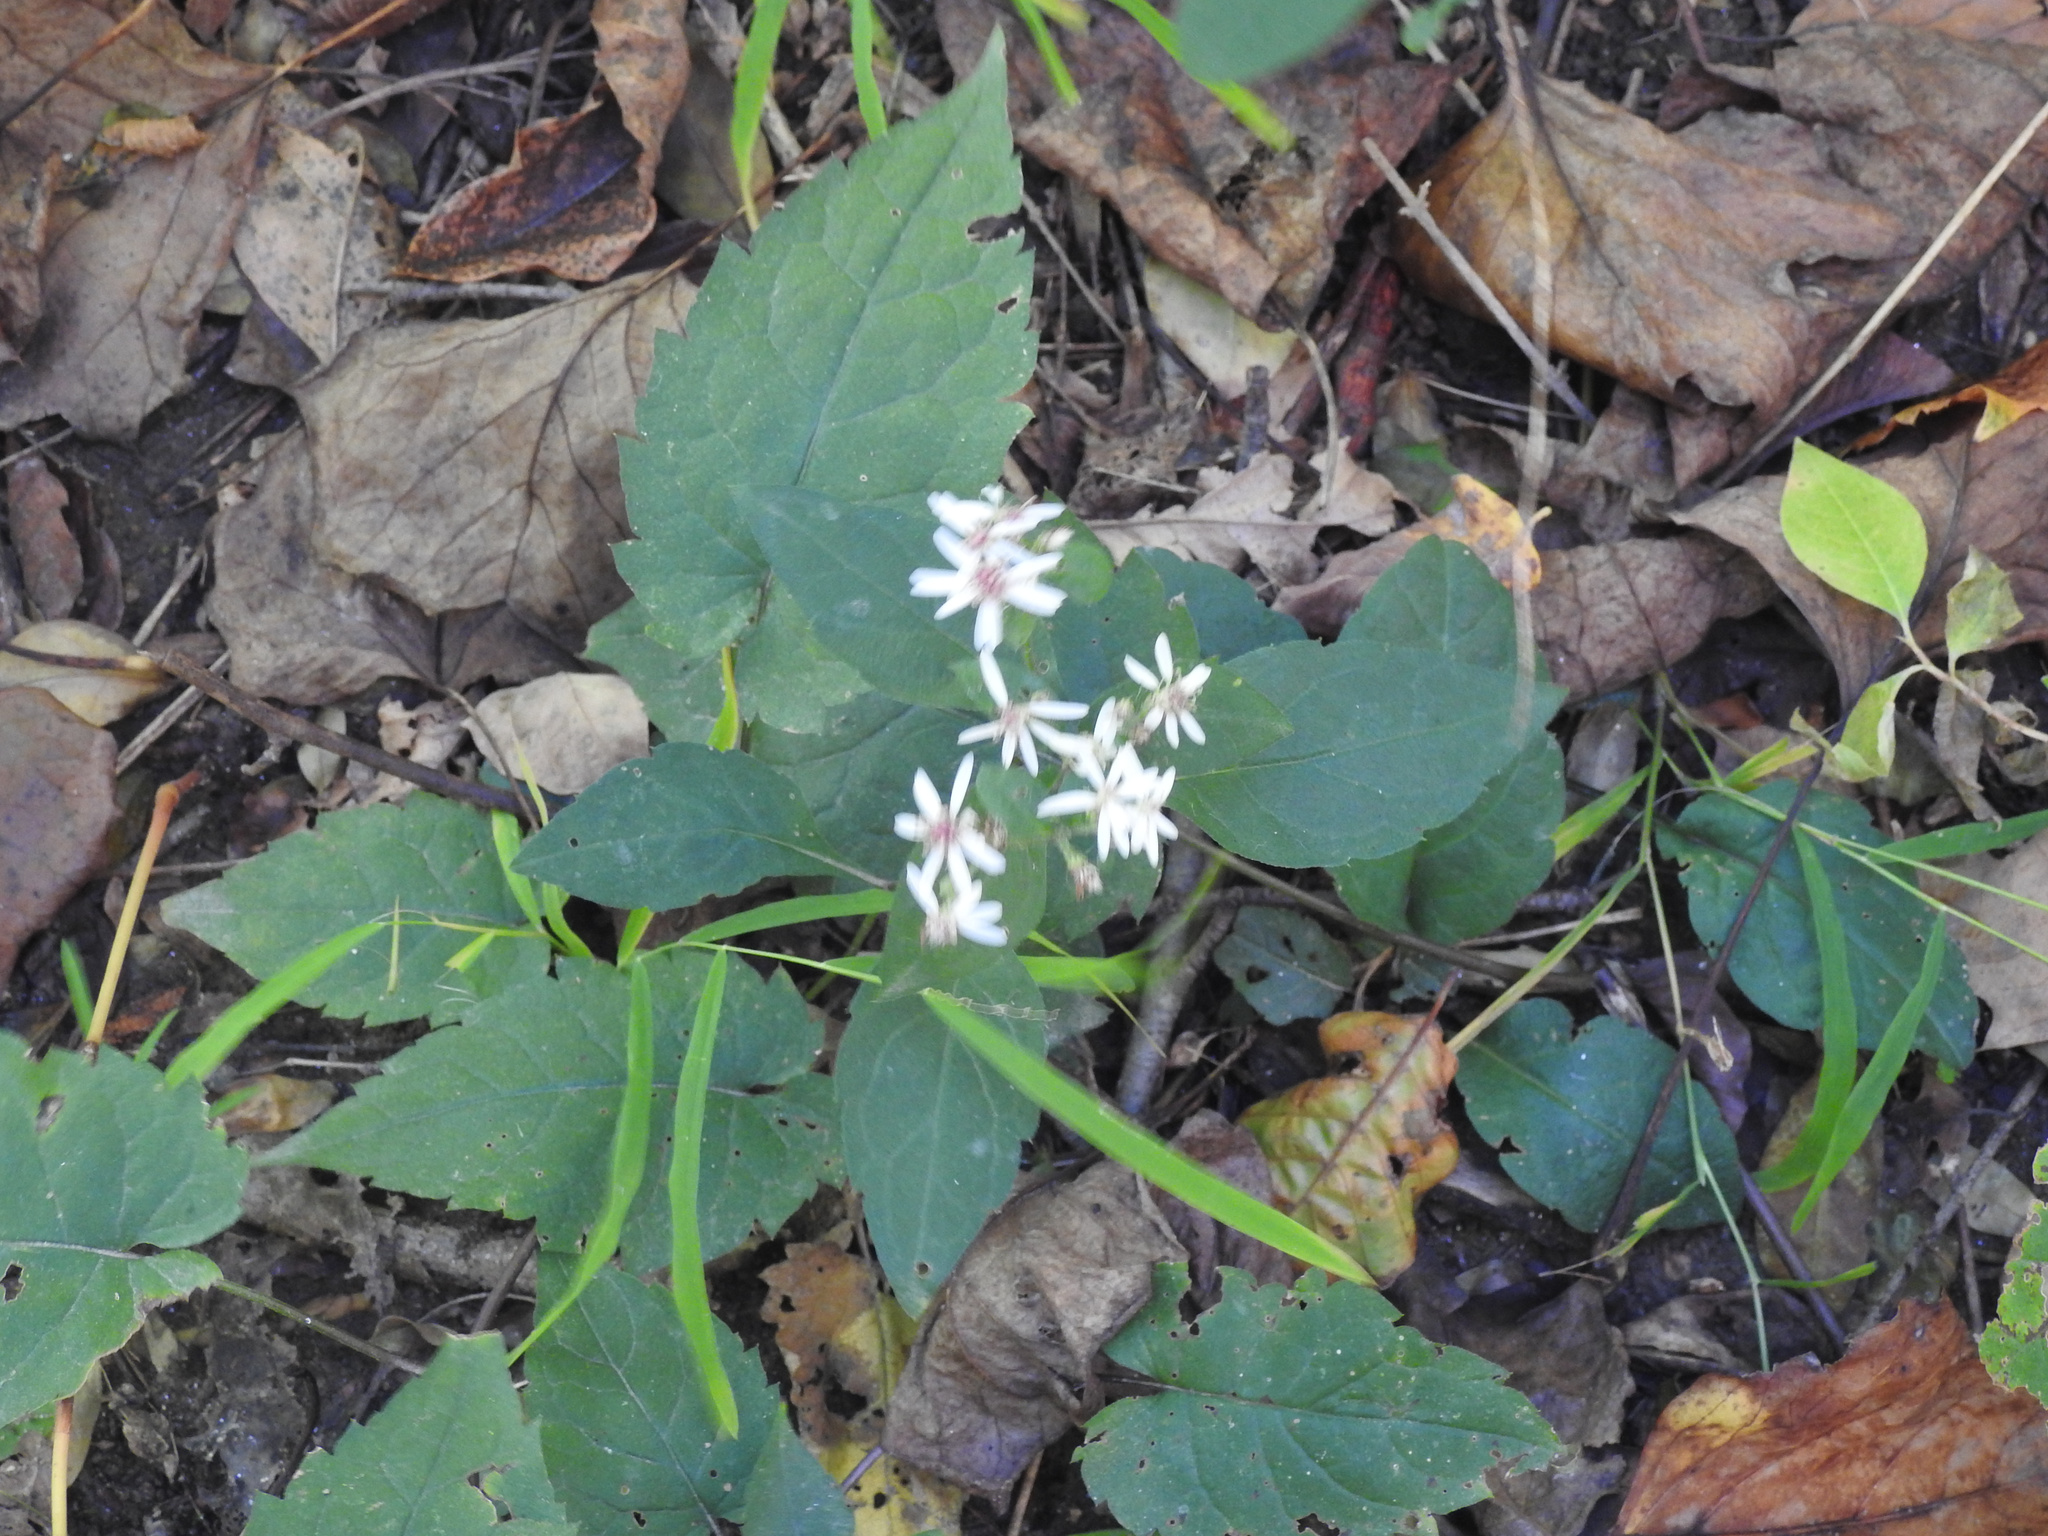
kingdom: Plantae
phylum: Tracheophyta
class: Magnoliopsida
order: Asterales
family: Asteraceae
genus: Eurybia
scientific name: Eurybia divaricata
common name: White wood aster
